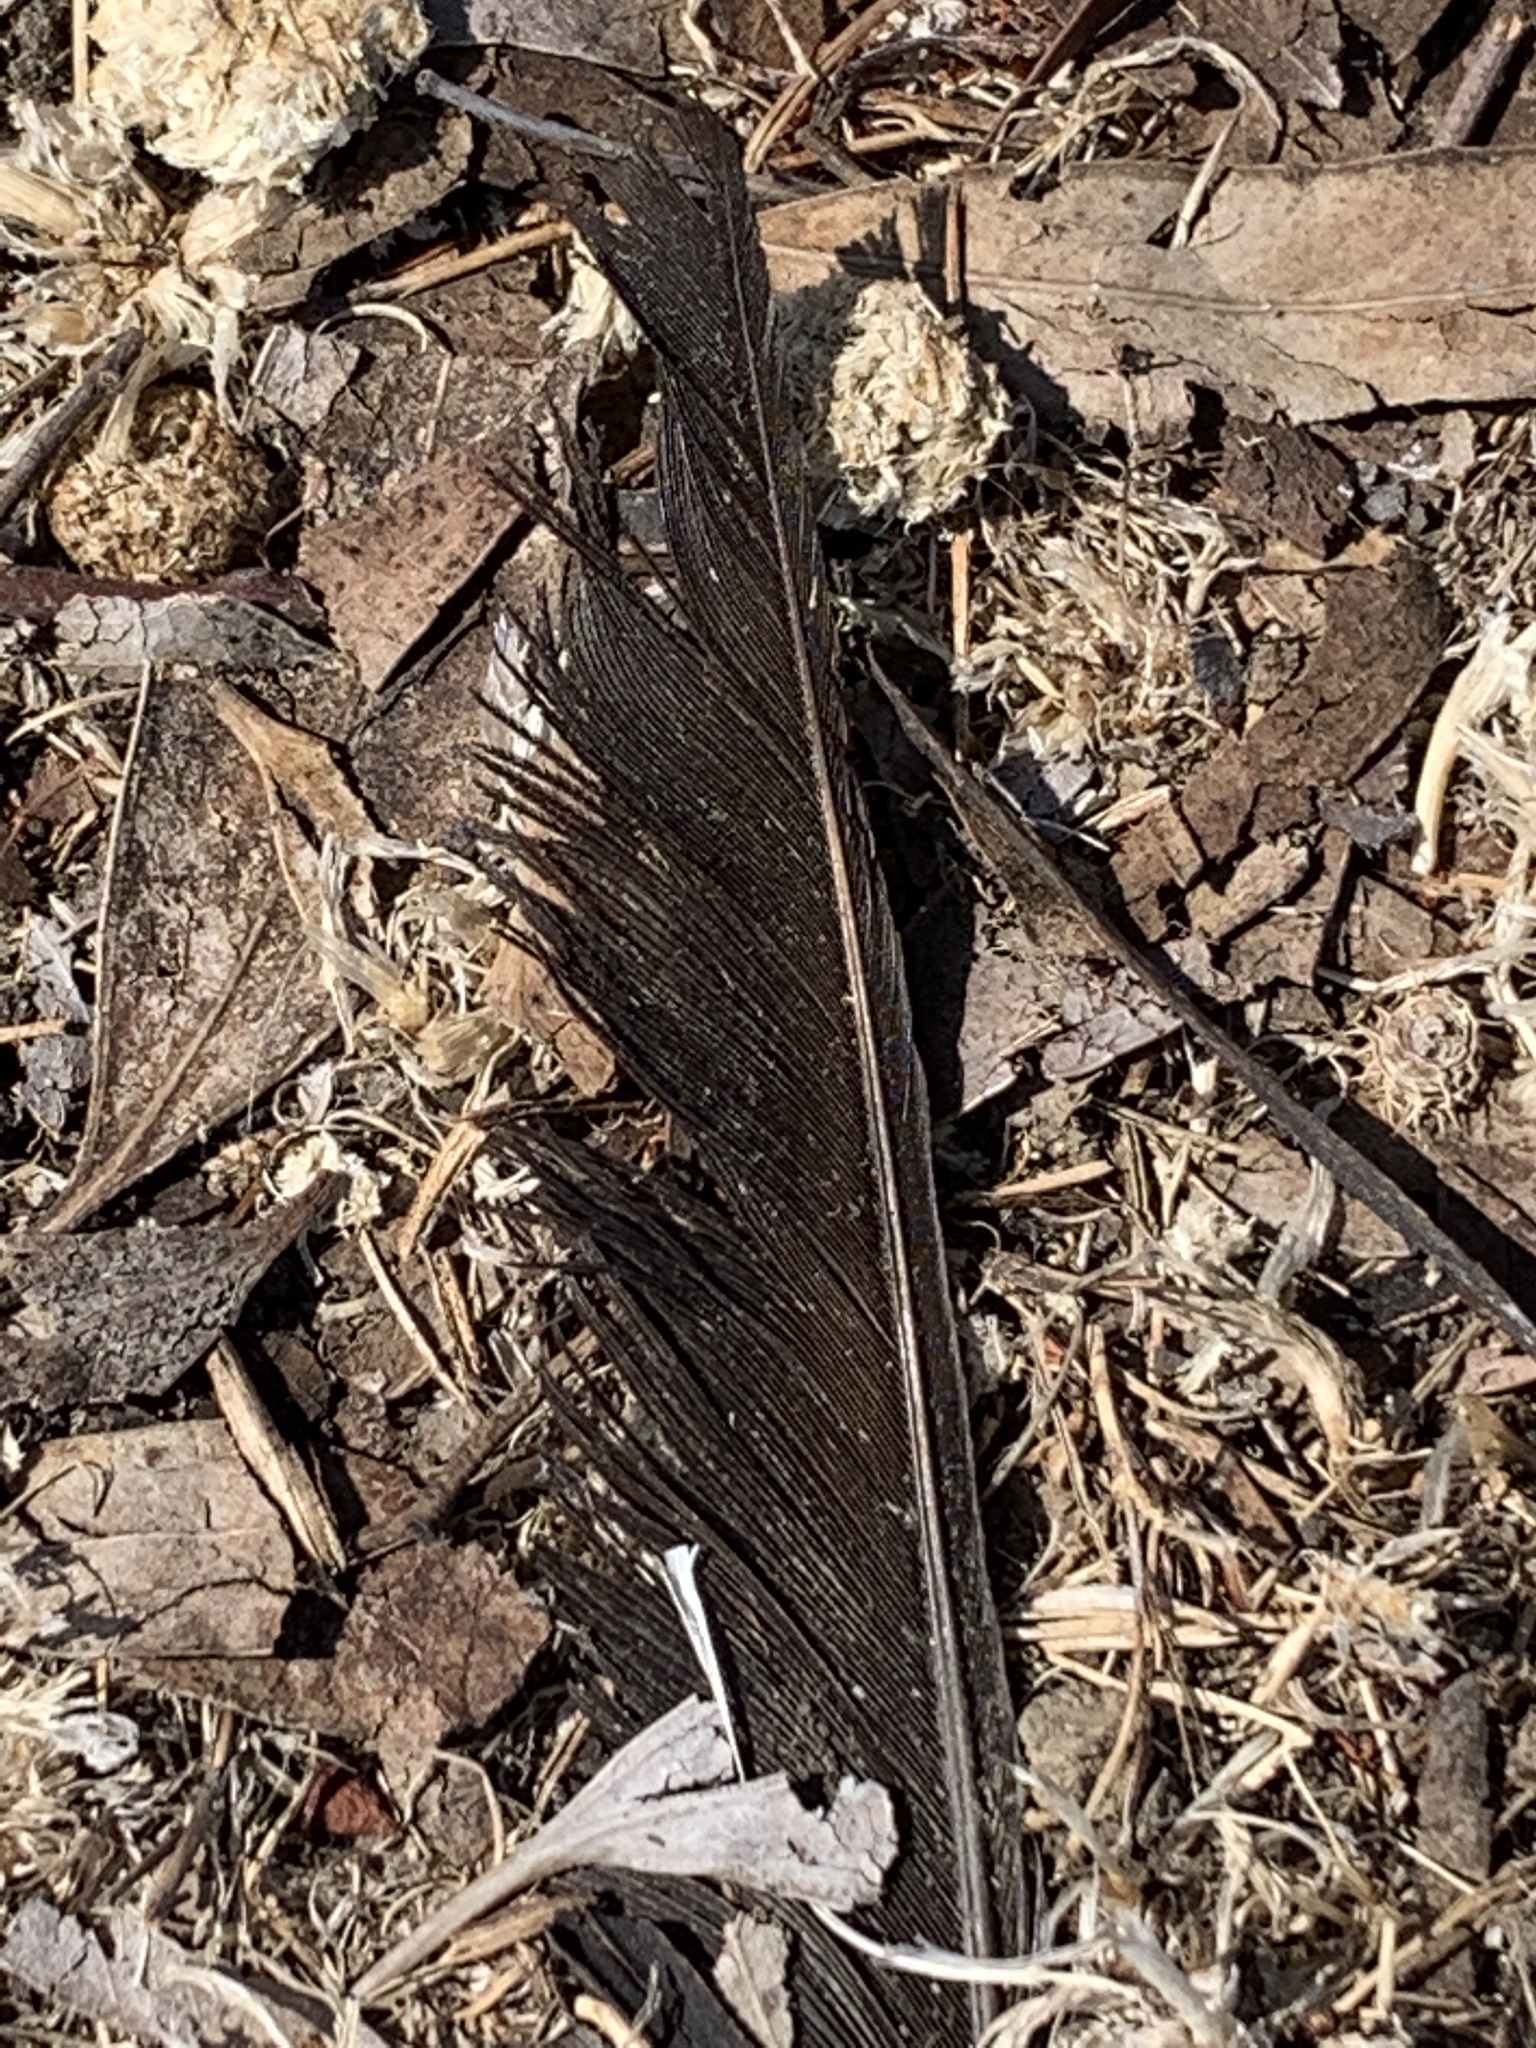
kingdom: Animalia
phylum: Chordata
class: Aves
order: Passeriformes
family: Corvidae
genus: Corvus
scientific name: Corvus brachyrhynchos
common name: American crow
